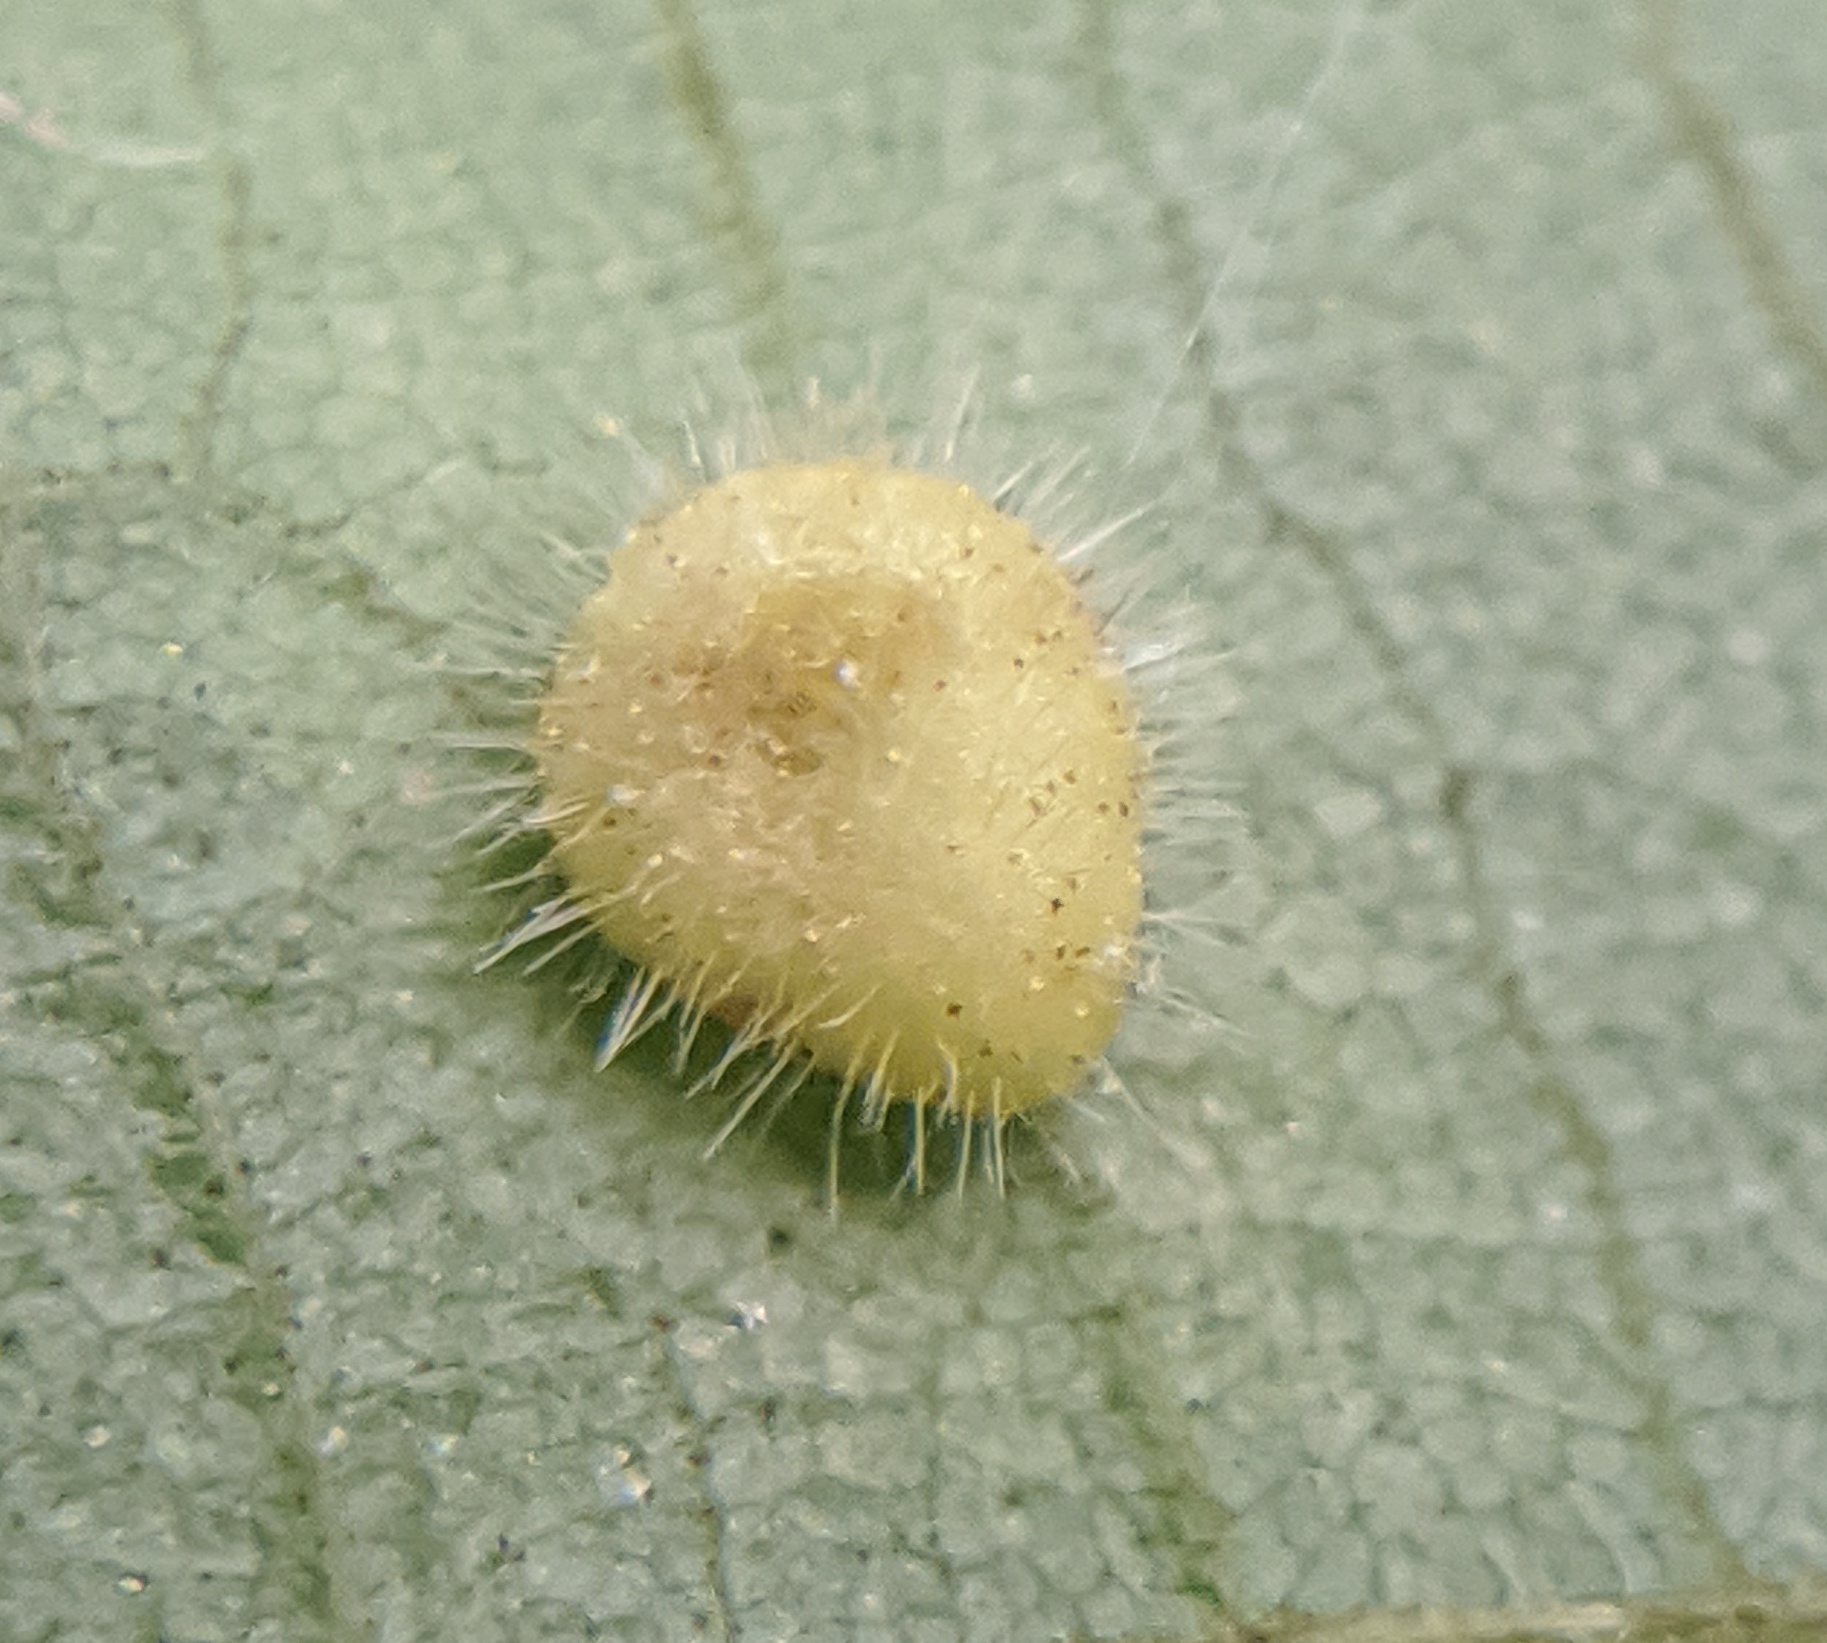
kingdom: Animalia
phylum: Arthropoda
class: Insecta
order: Diptera
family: Cecidomyiidae
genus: Caryomyia
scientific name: Caryomyia thompsoni
